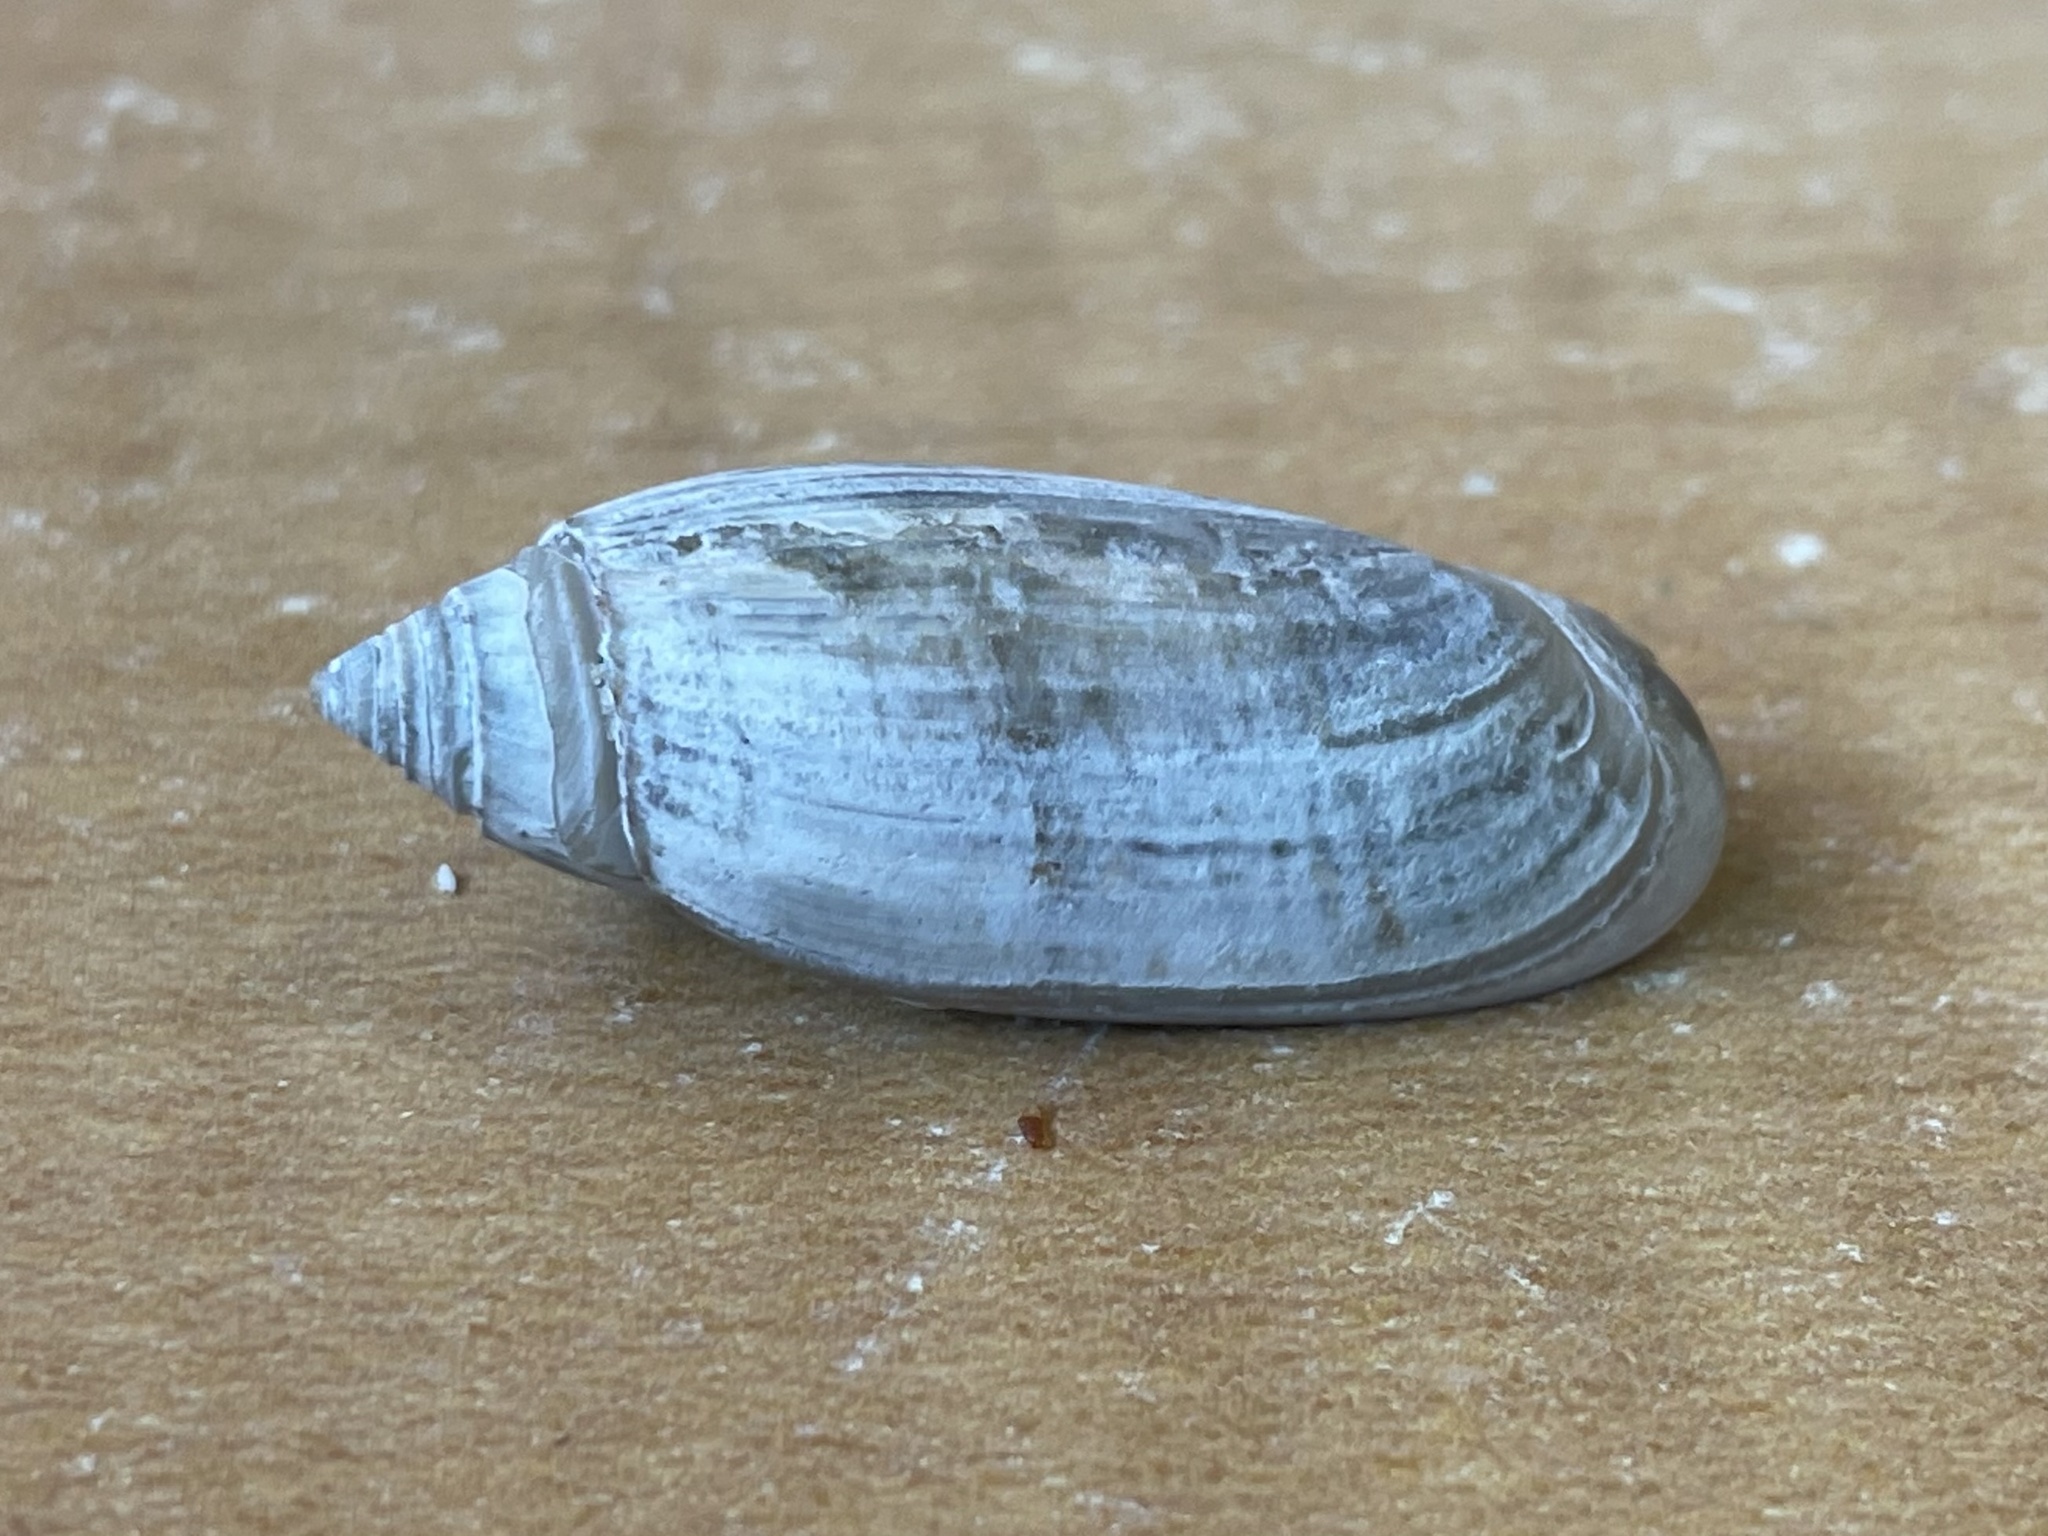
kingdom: Animalia
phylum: Mollusca
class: Gastropoda
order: Neogastropoda
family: Olividae
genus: Oliva
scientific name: Oliva sayana
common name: Lettered olive
